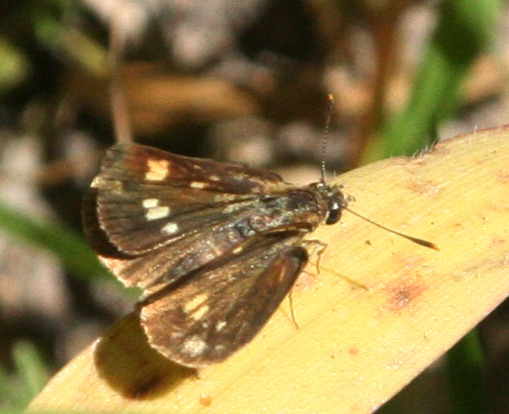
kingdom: Animalia
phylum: Arthropoda
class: Insecta
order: Lepidoptera
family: Hesperiidae
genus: Ampittia
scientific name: Ampittia dioscorides
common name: Common bush hopper
